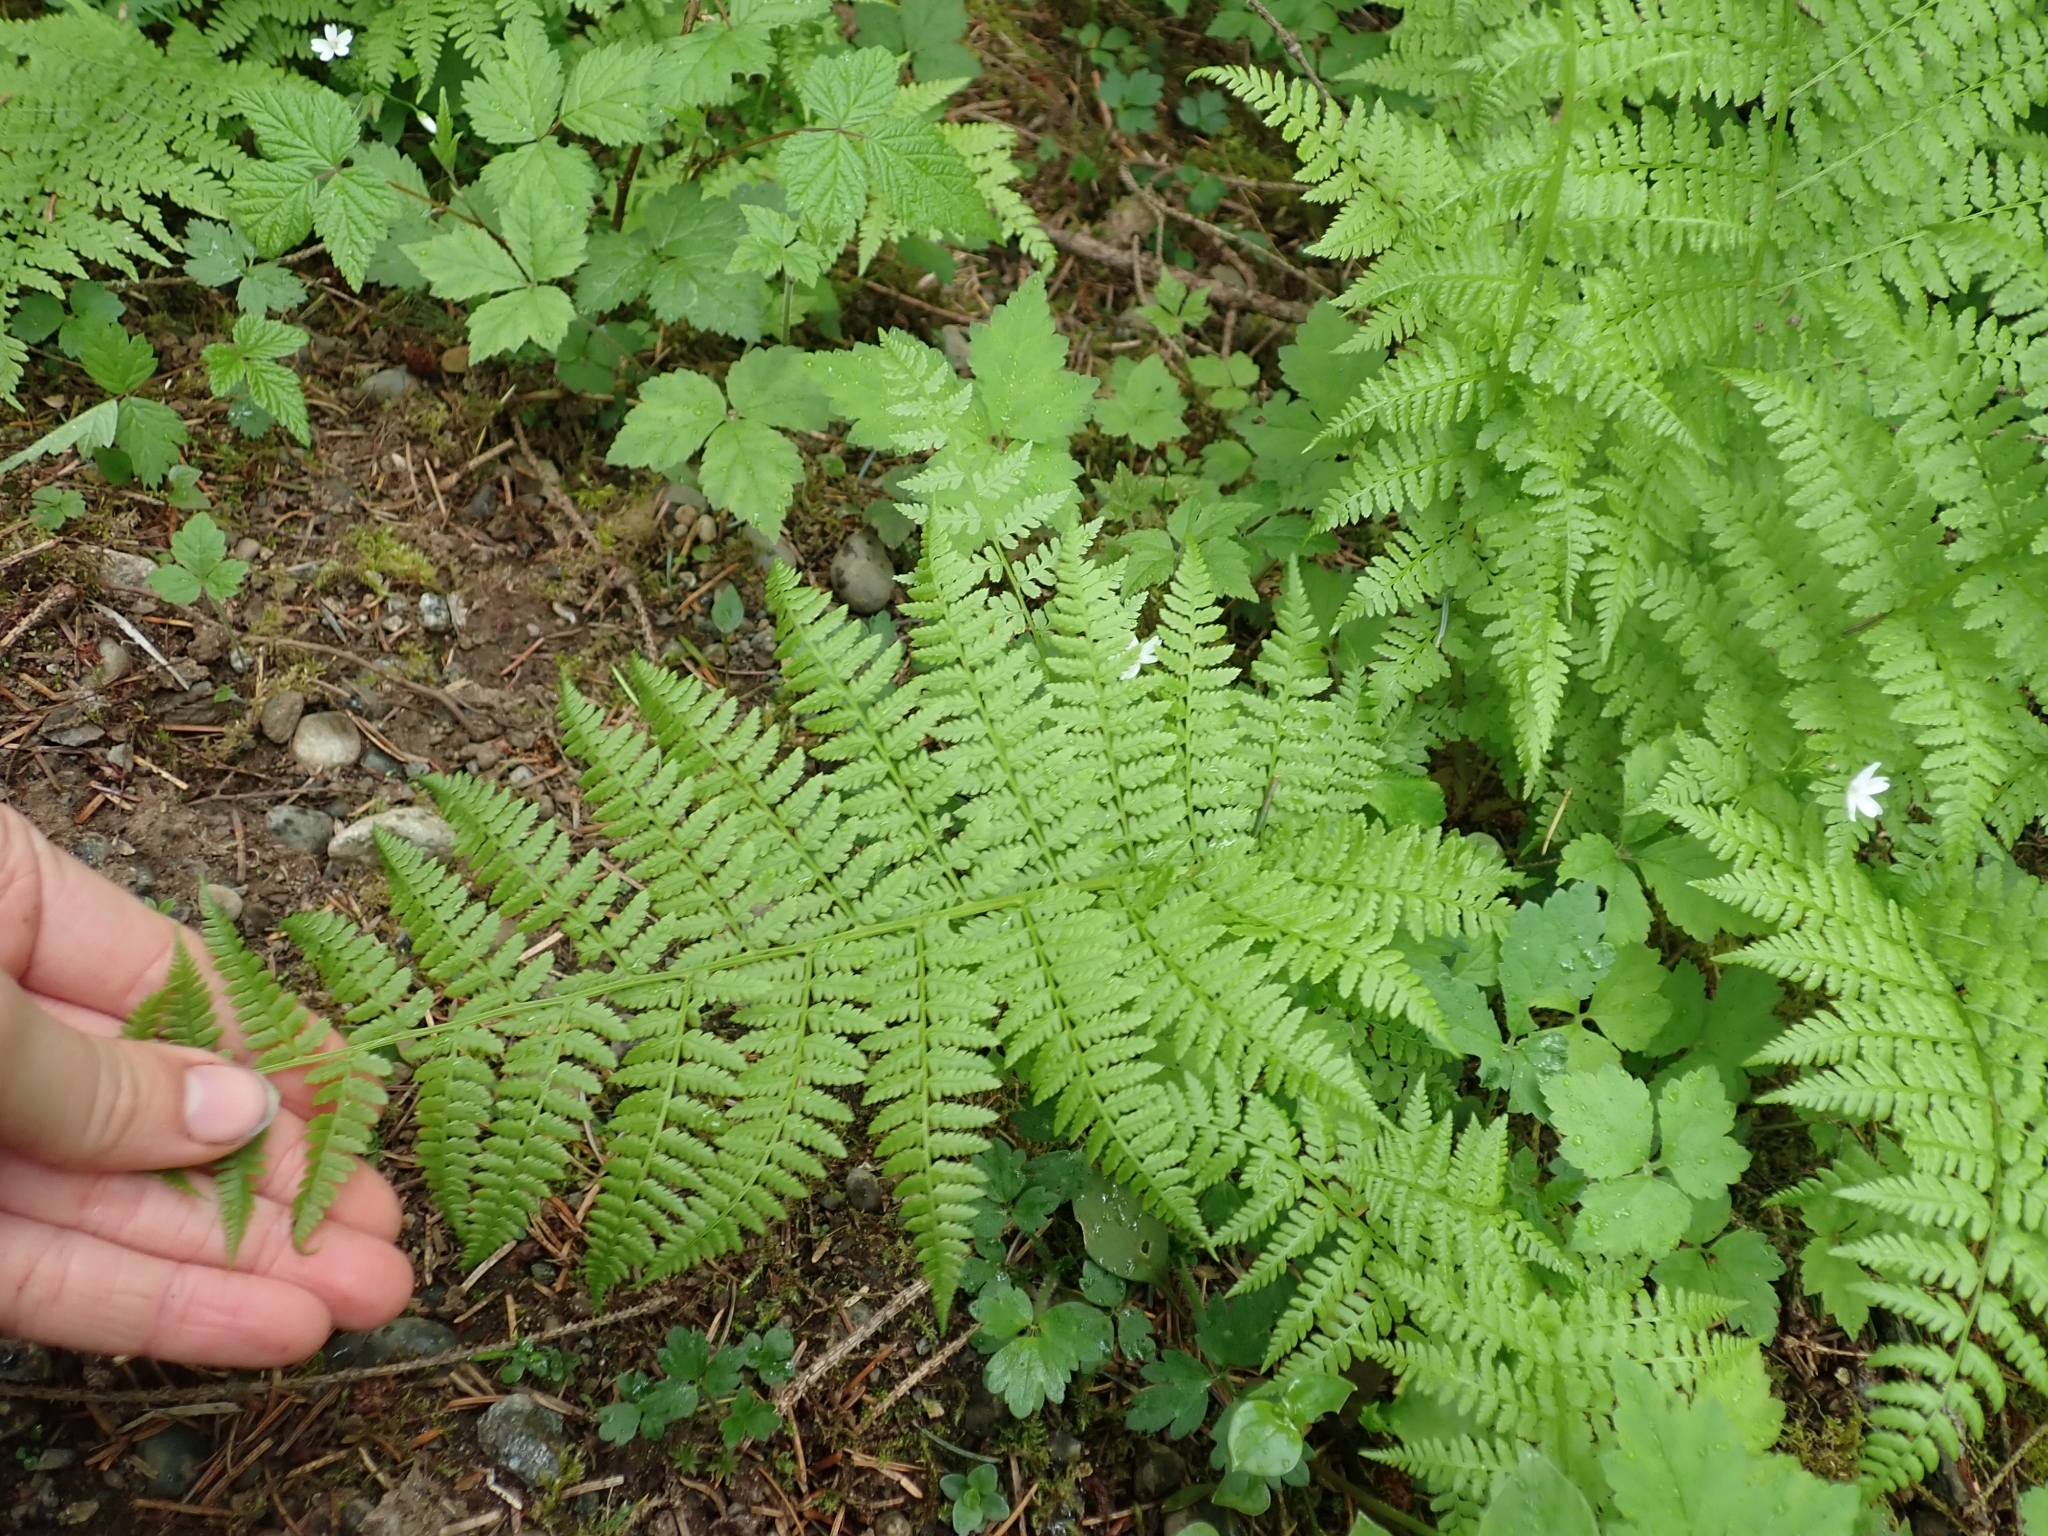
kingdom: Plantae
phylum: Tracheophyta
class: Polypodiopsida
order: Polypodiales
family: Athyriaceae
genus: Athyrium
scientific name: Athyrium filix-femina
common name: Lady fern
